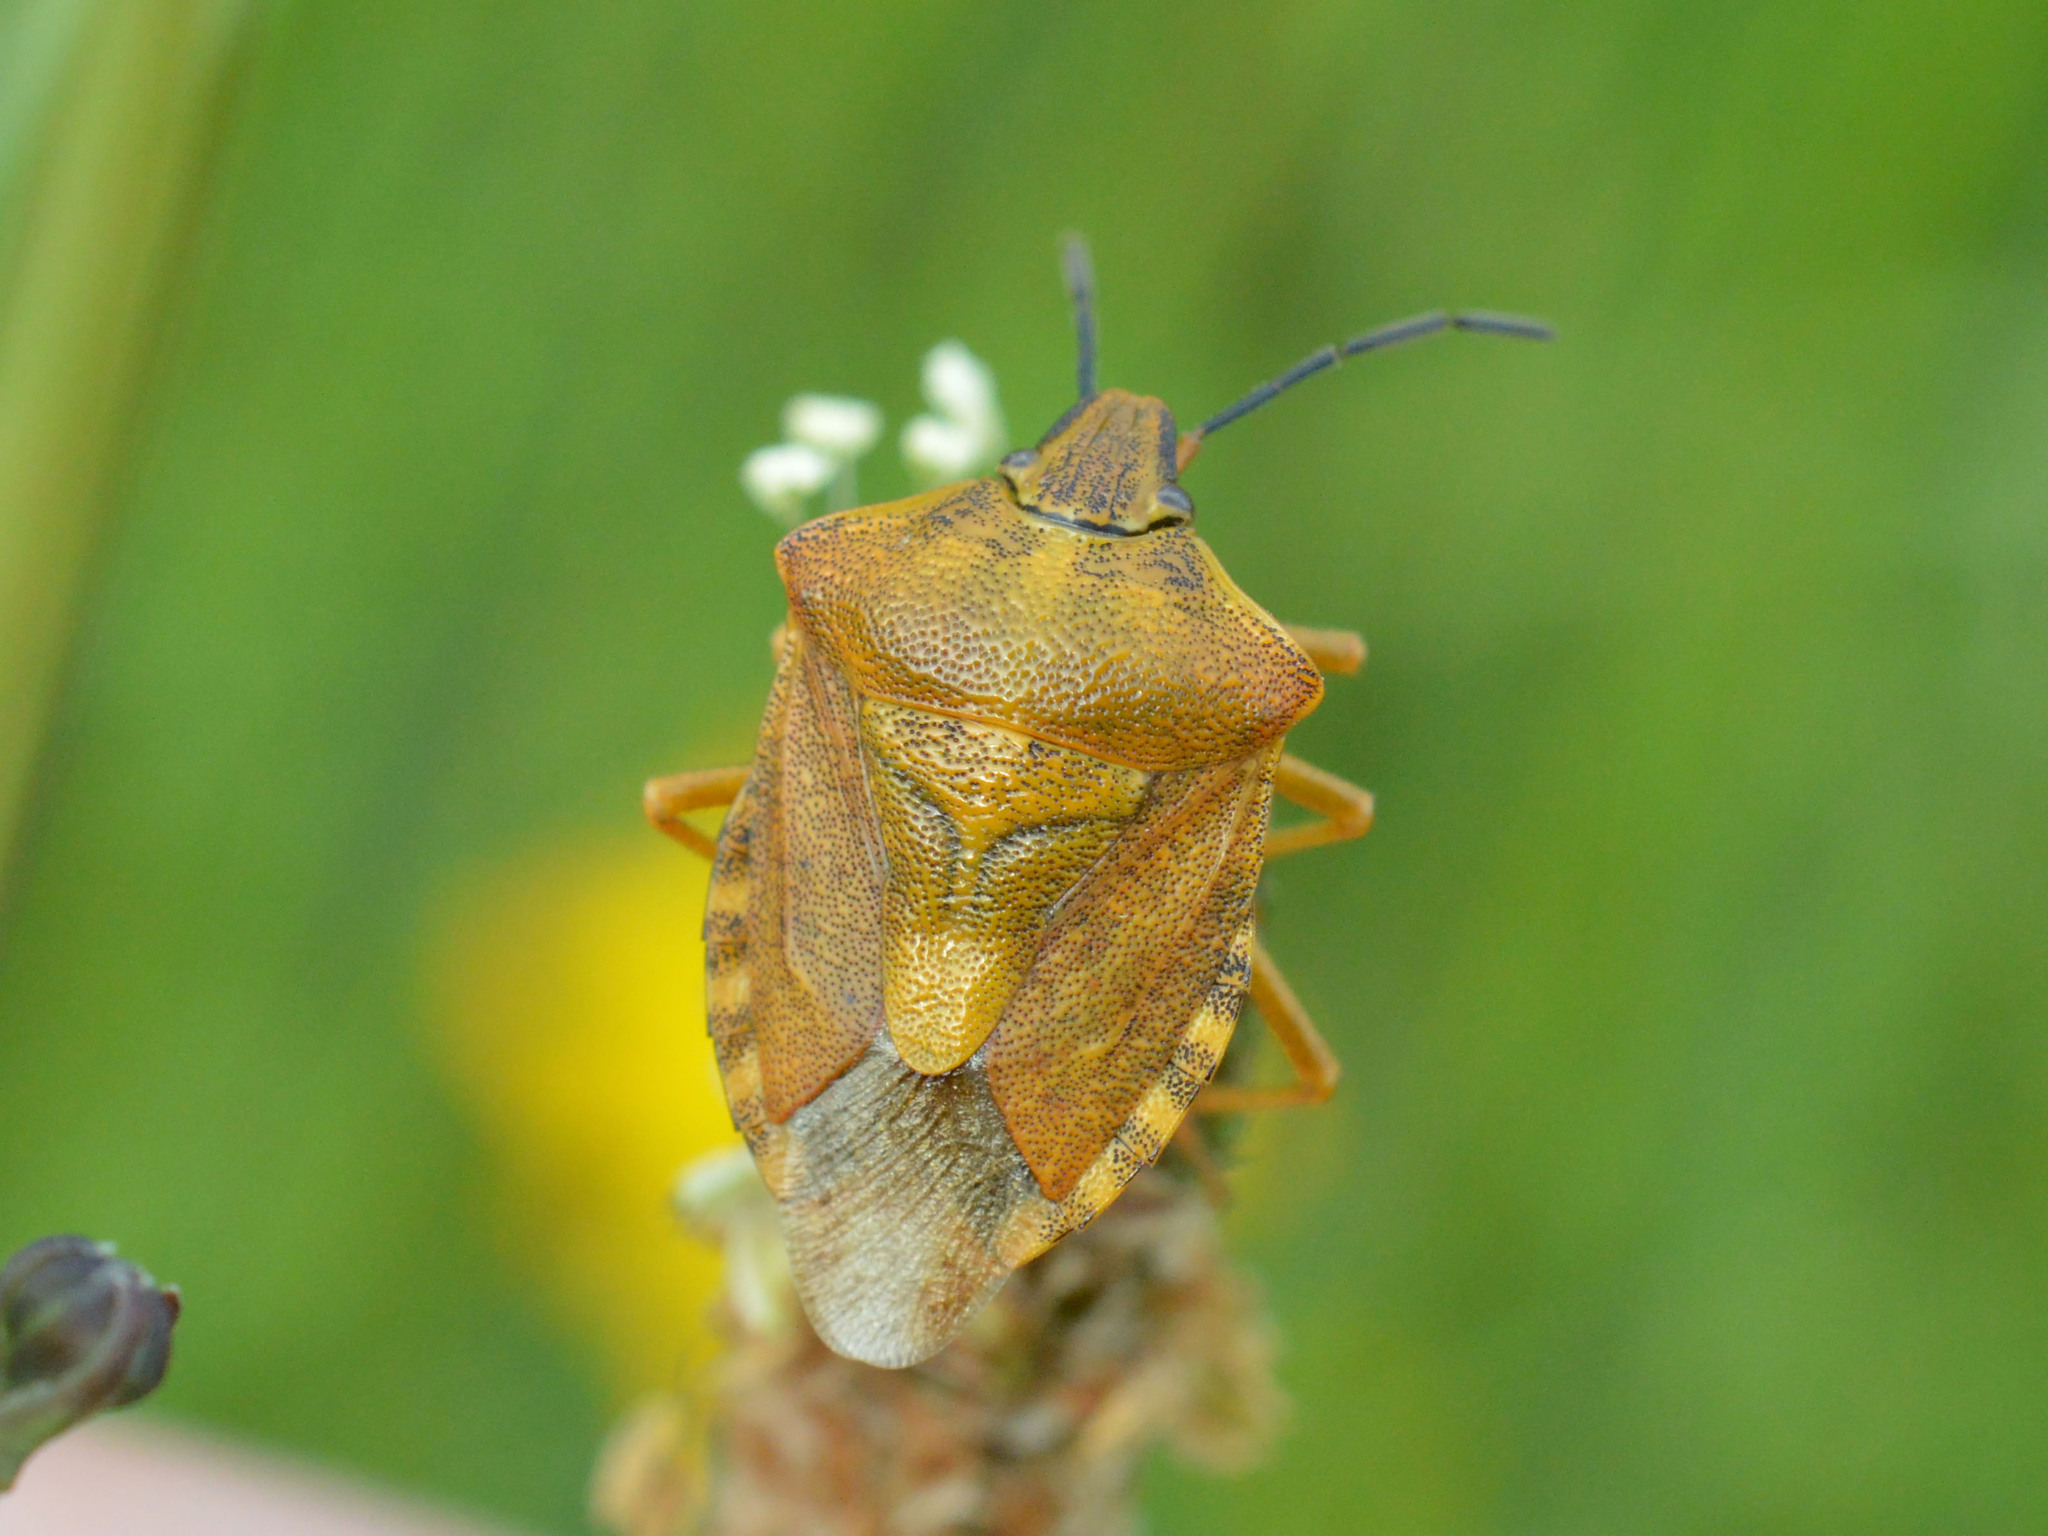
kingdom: Animalia
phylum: Arthropoda
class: Insecta
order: Hemiptera
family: Pentatomidae
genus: Carpocoris
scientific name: Carpocoris purpureipennis
